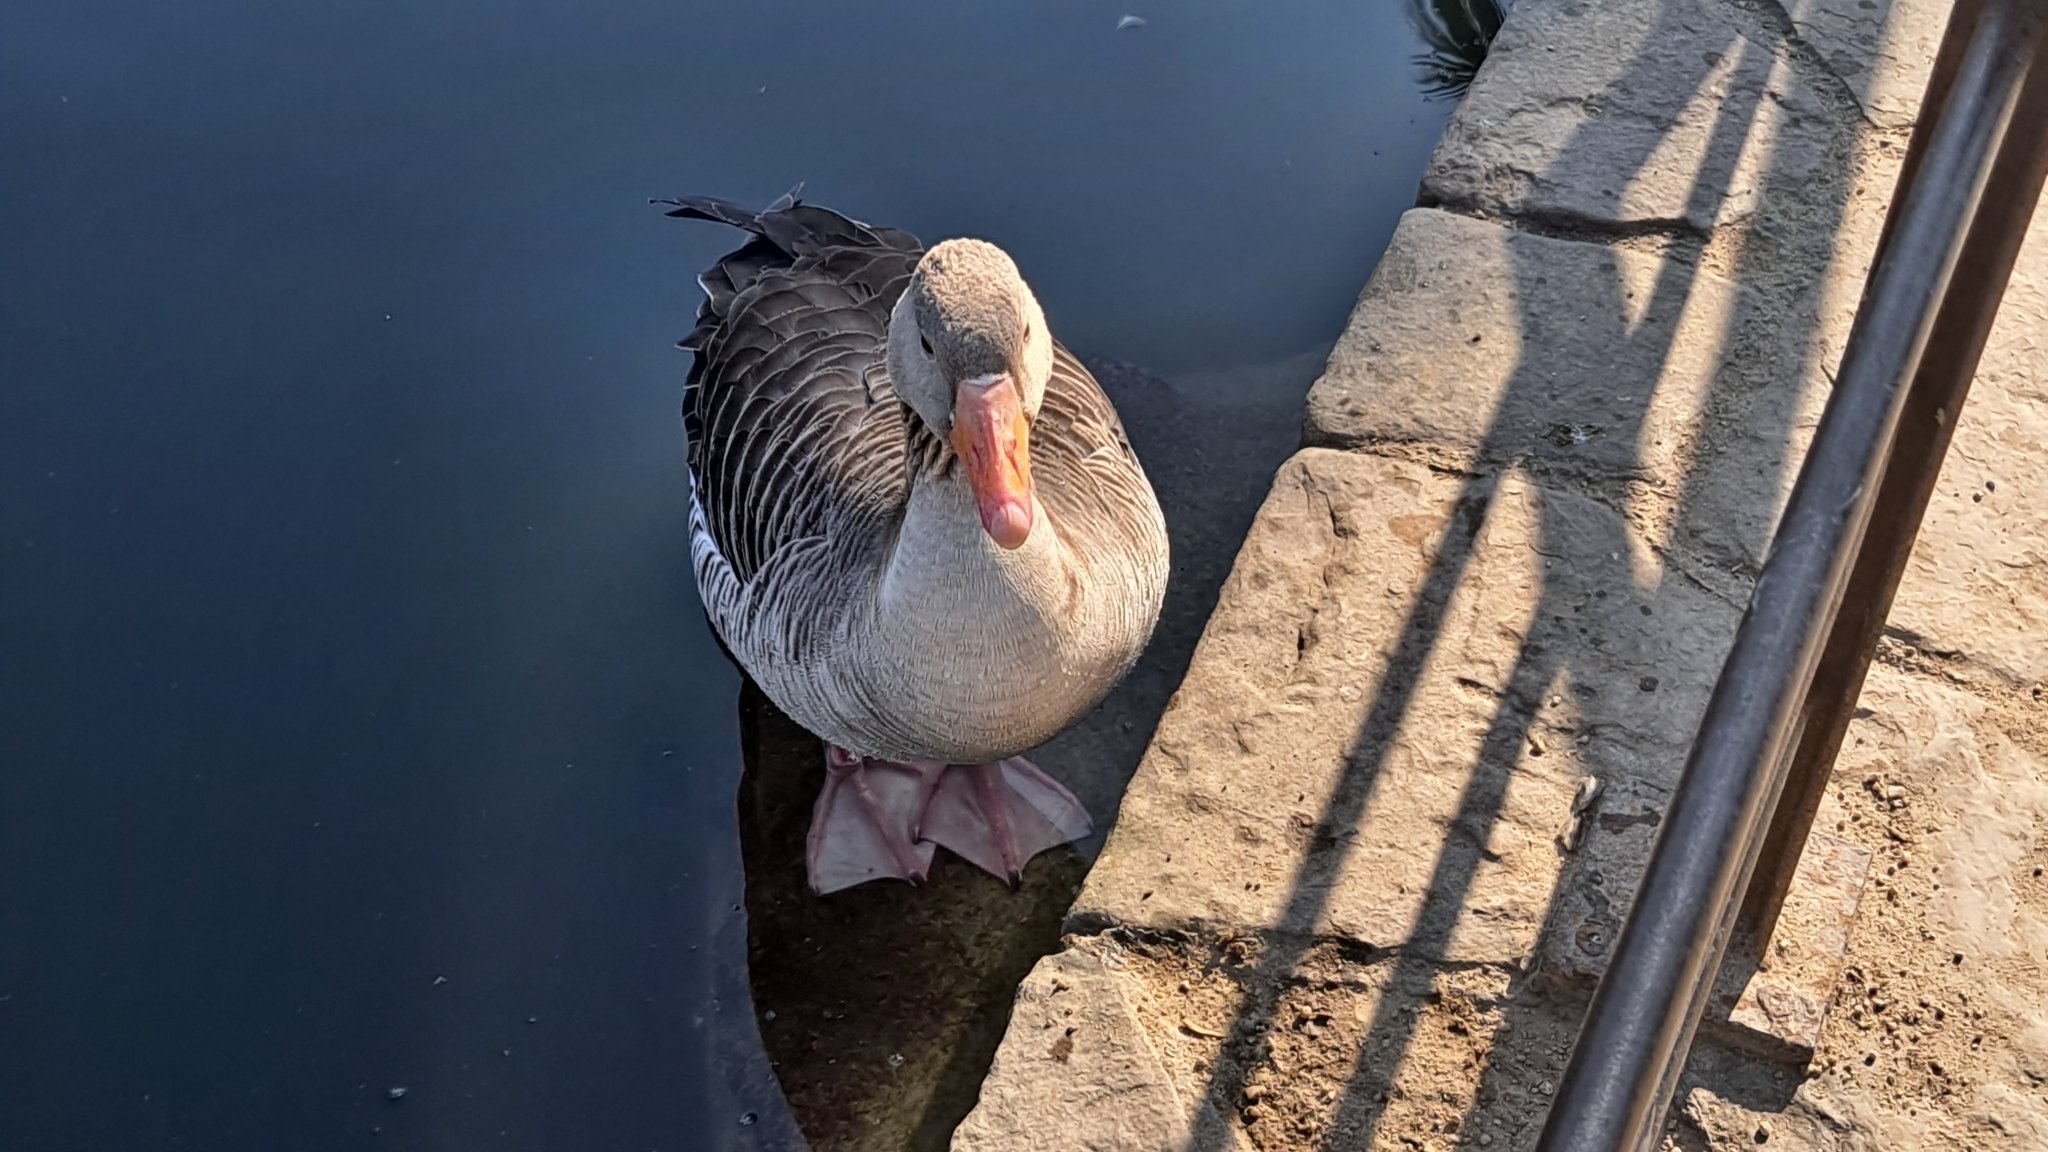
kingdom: Animalia
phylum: Chordata
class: Aves
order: Anseriformes
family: Anatidae
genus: Anser
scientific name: Anser anser
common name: Greylag goose
